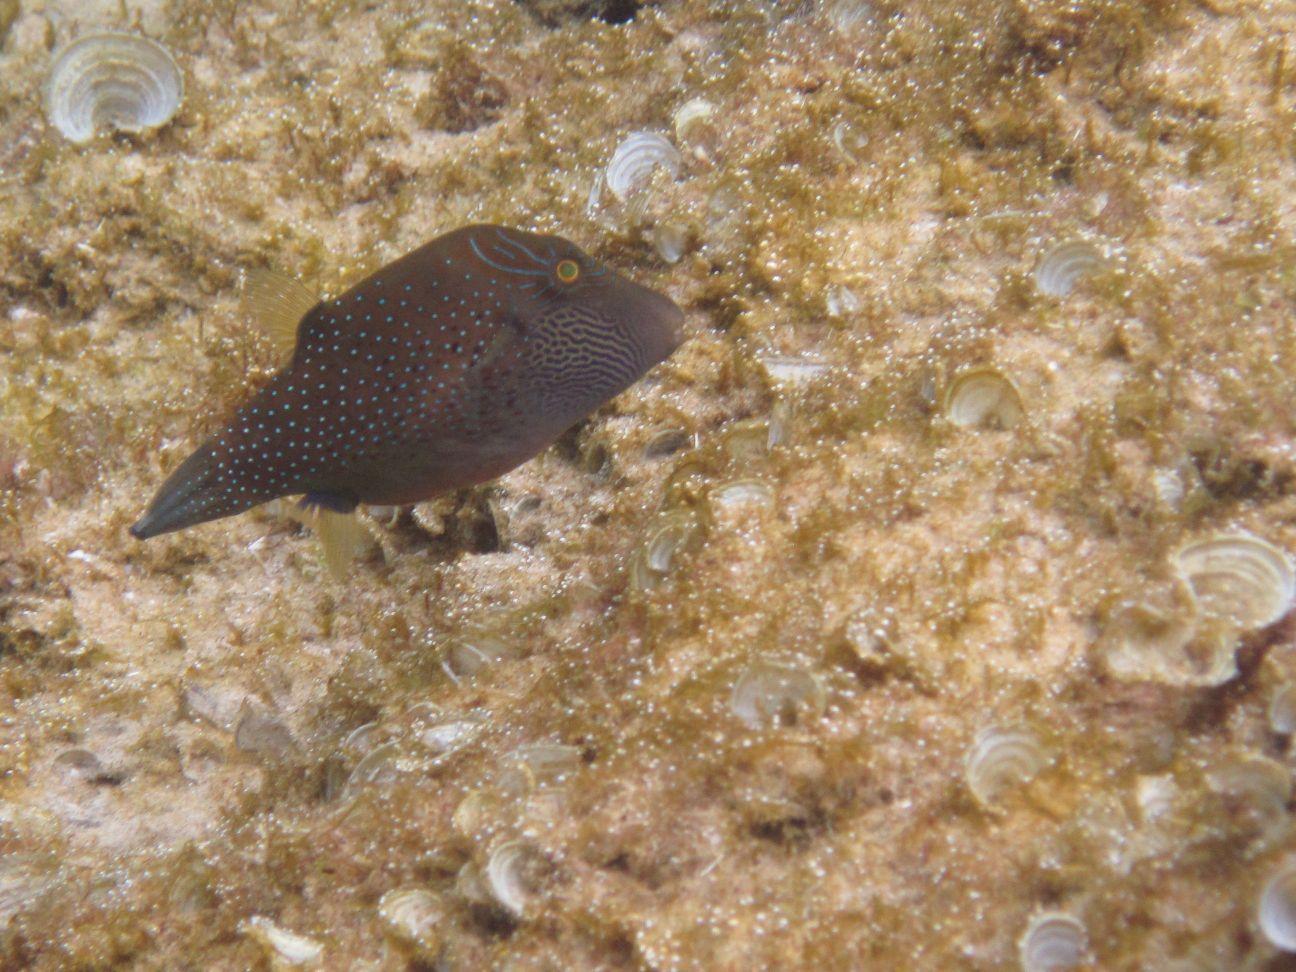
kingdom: Animalia
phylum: Chordata
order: Tetraodontiformes
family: Tetraodontidae
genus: Canthigaster
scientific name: Canthigaster amboinensis
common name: Ambon pufferfish
